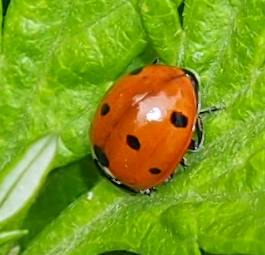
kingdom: Animalia
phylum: Arthropoda
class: Insecta
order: Coleoptera
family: Coccinellidae
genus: Coccinella
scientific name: Coccinella septempunctata
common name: Sevenspotted lady beetle
